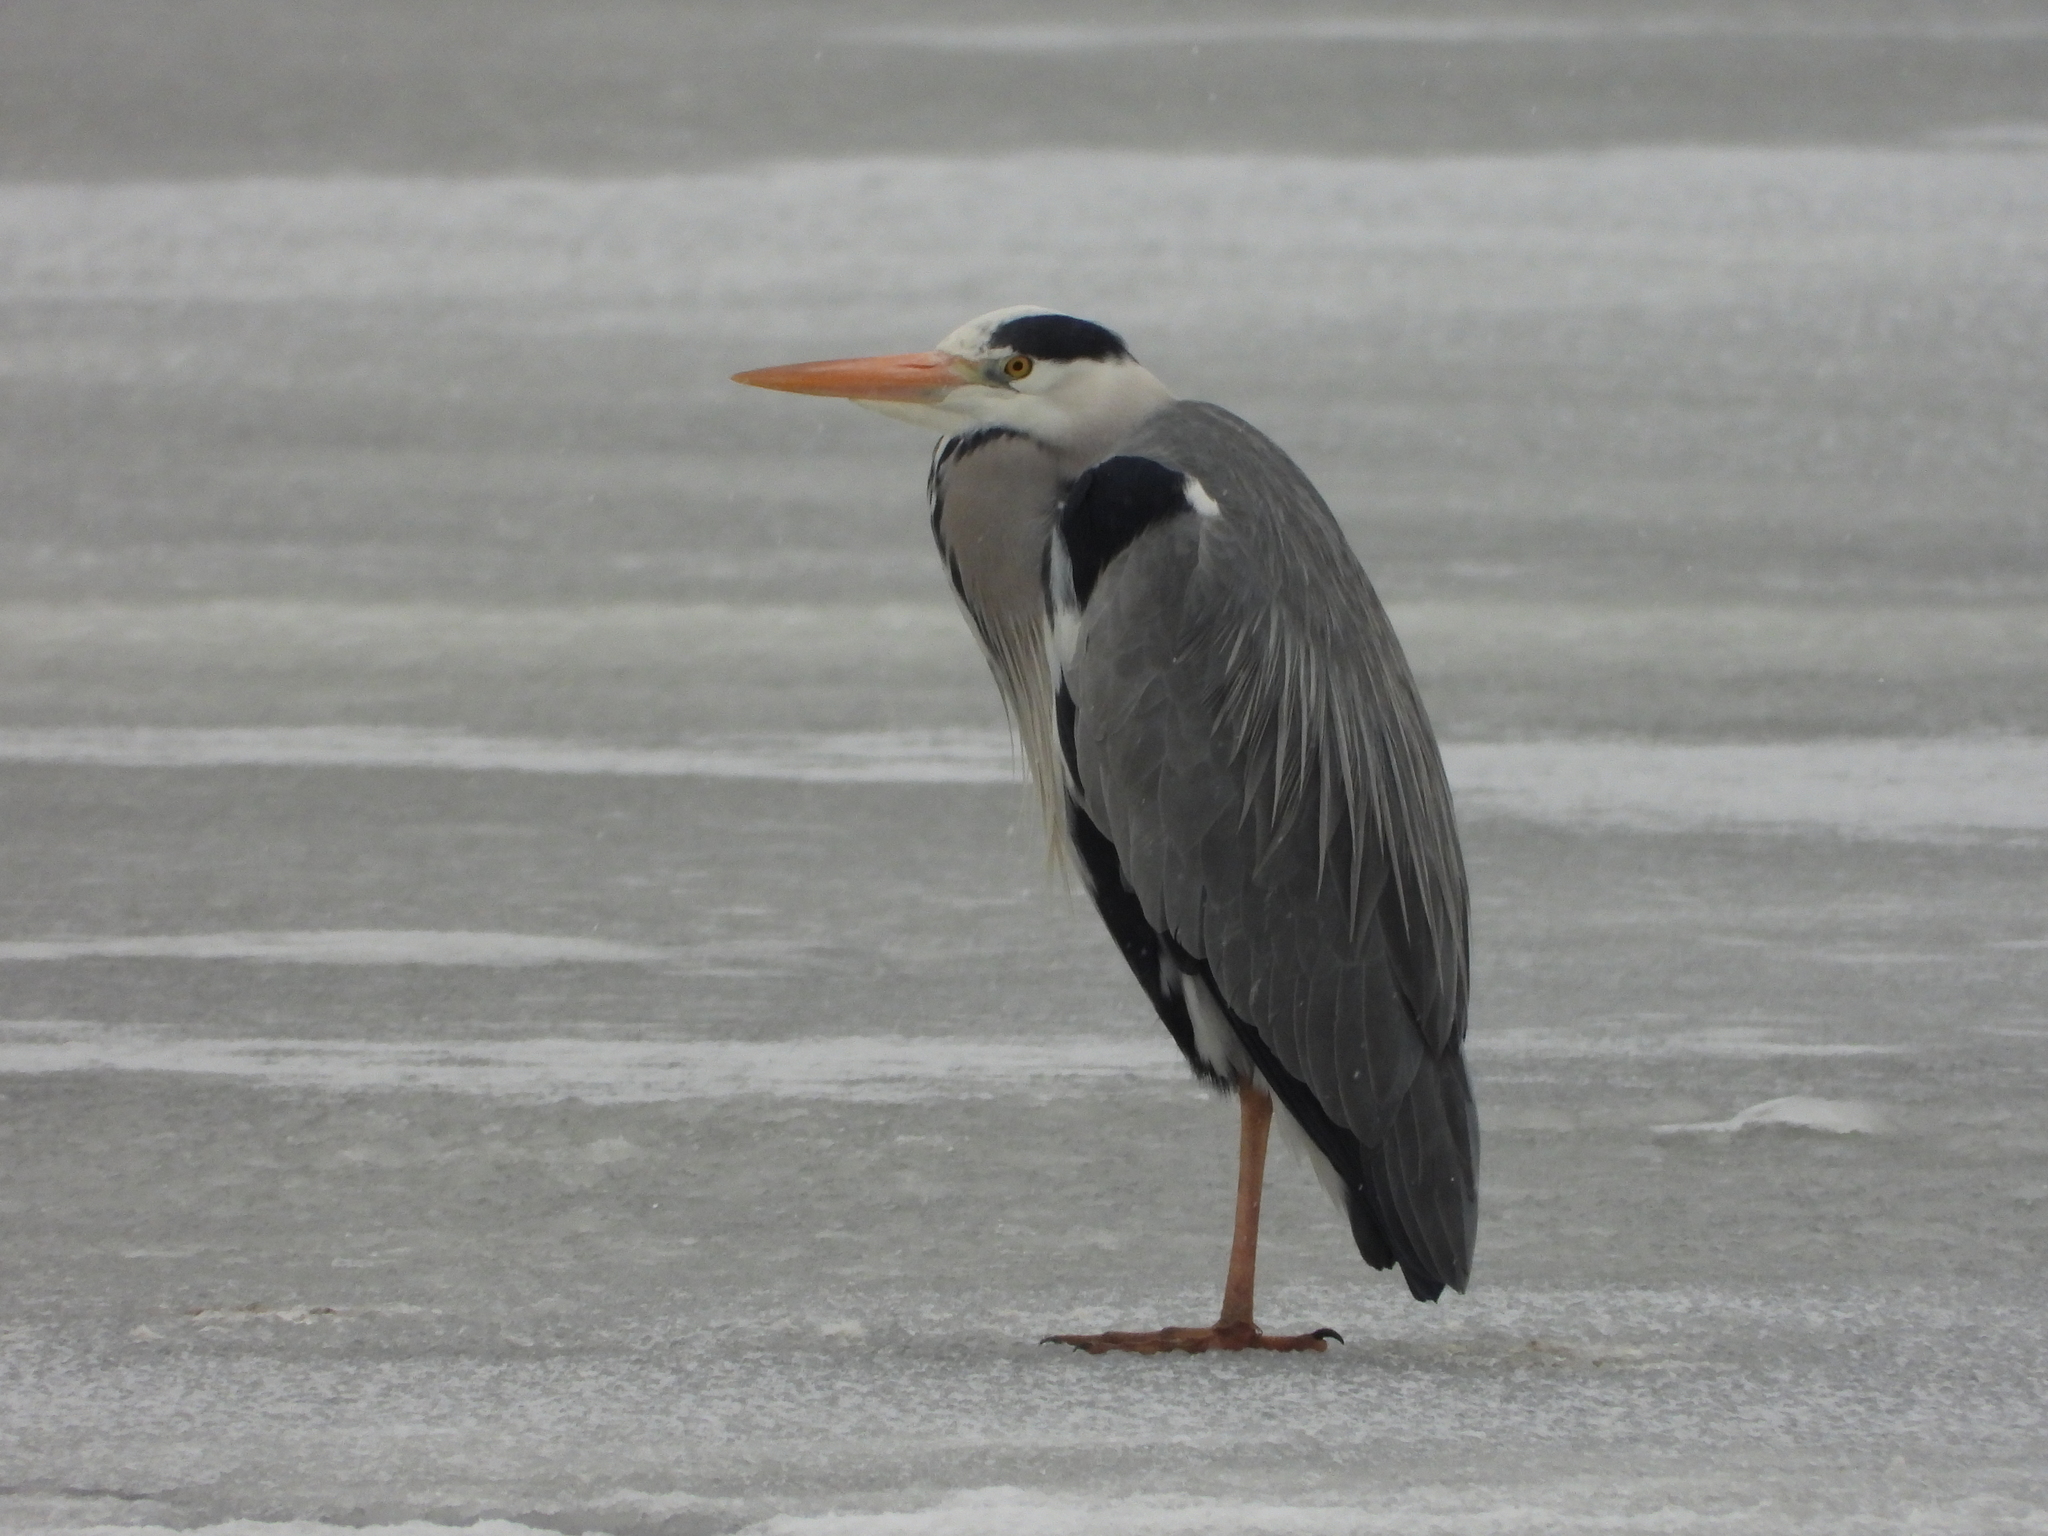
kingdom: Animalia
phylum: Chordata
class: Aves
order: Pelecaniformes
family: Ardeidae
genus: Ardea
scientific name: Ardea cinerea
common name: Grey heron
